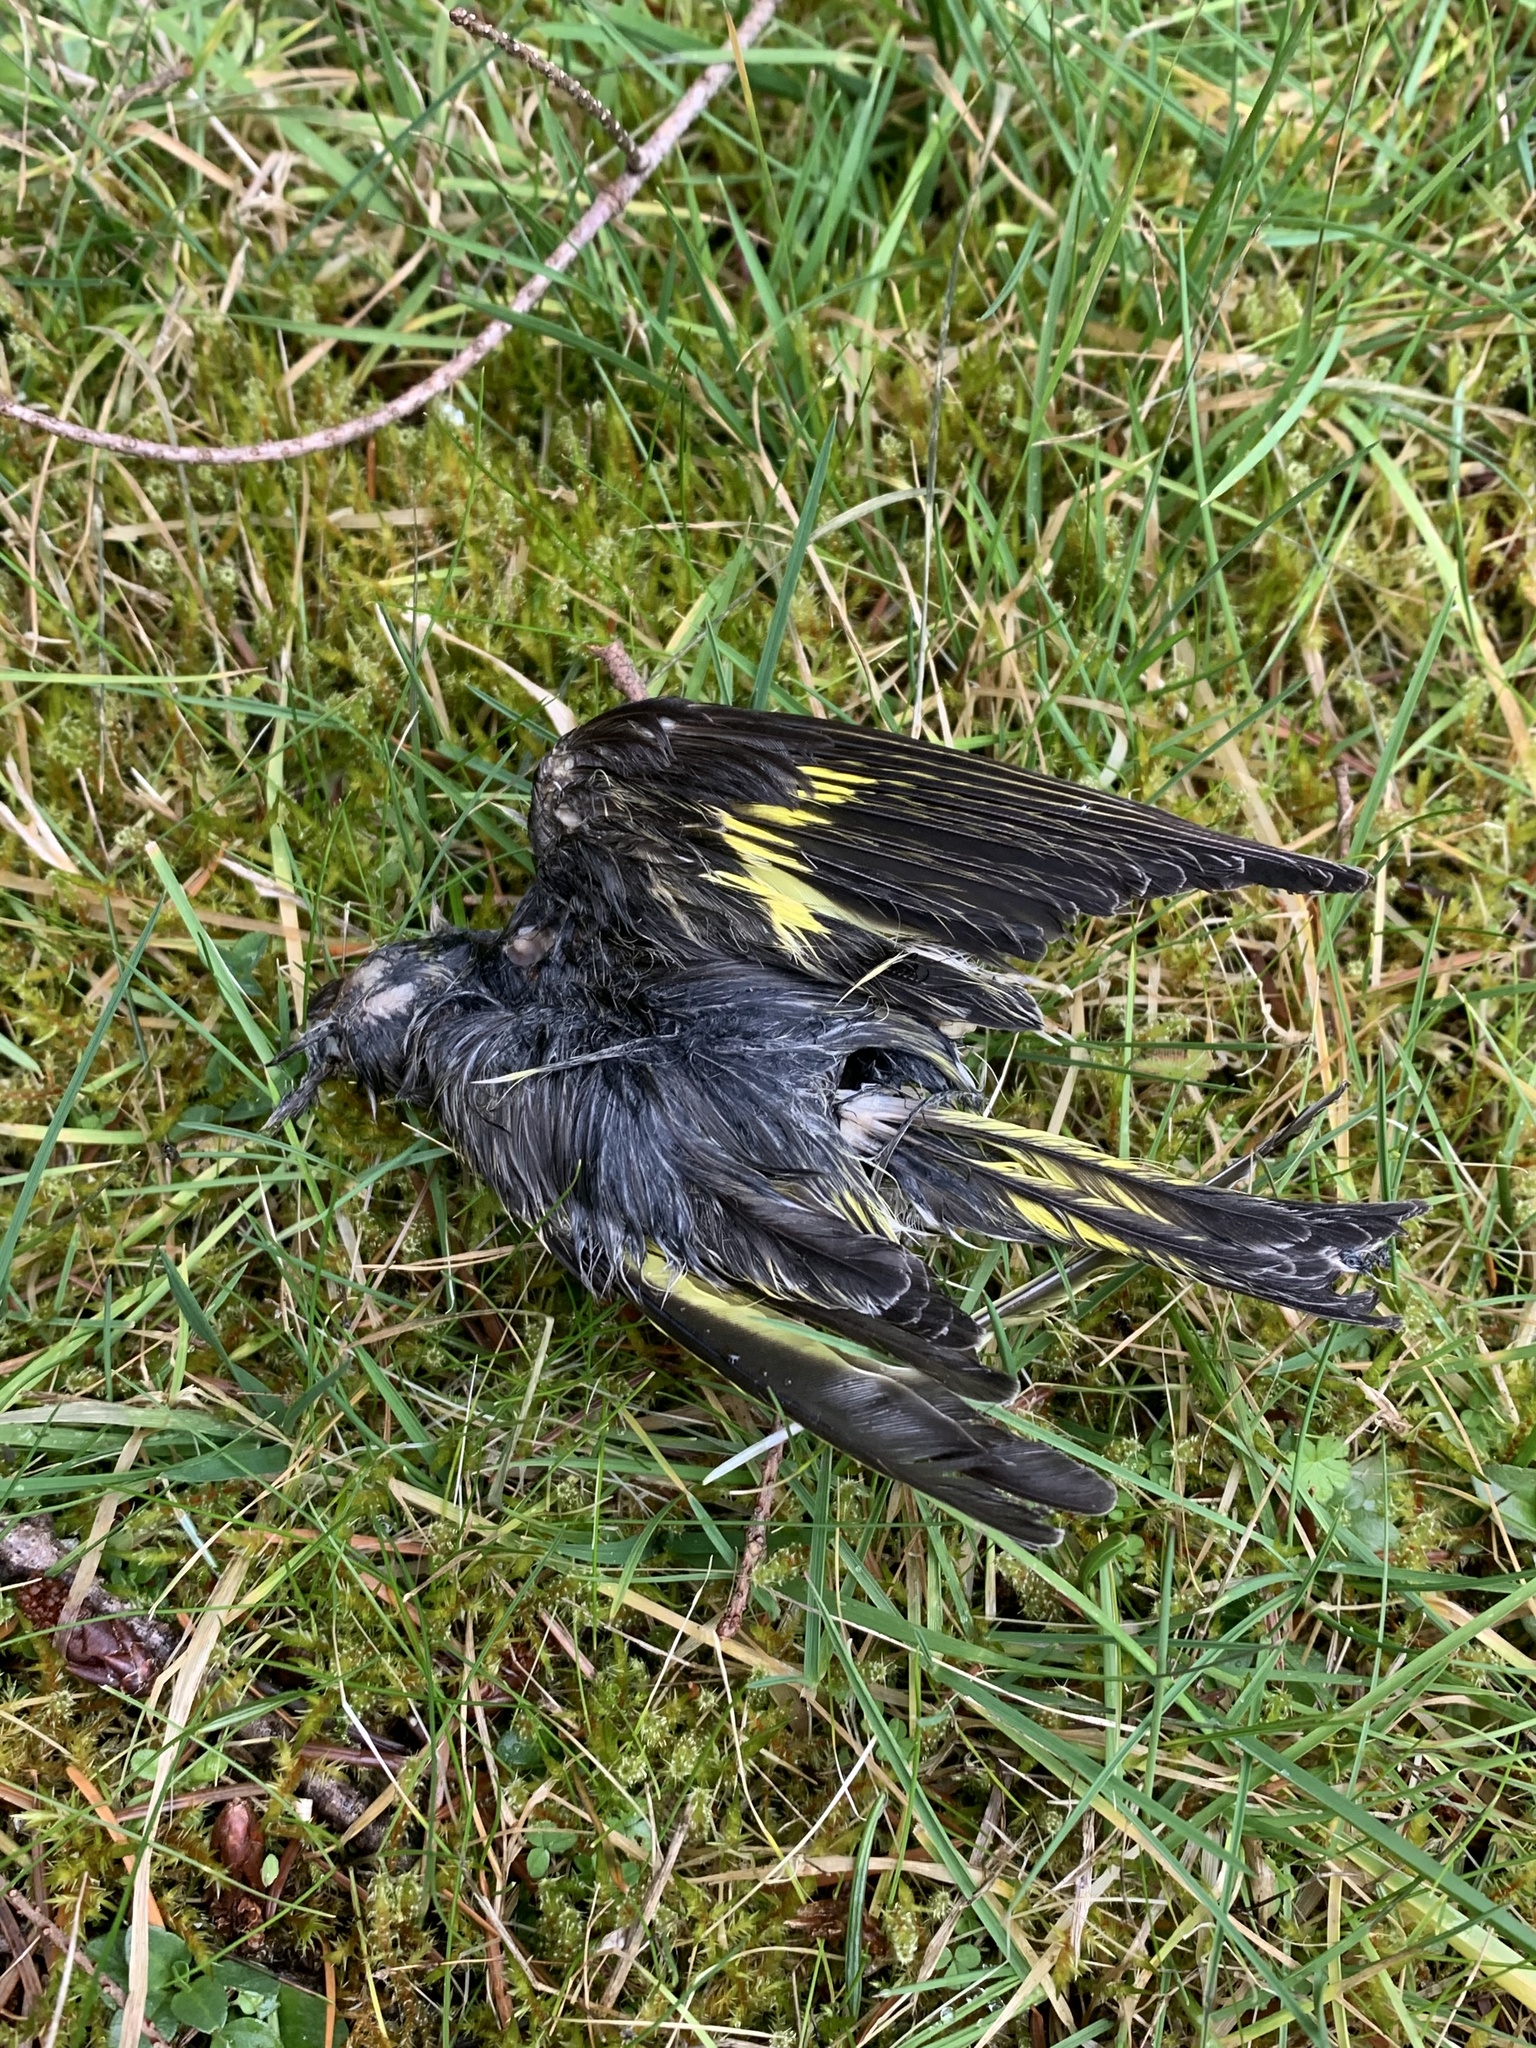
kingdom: Animalia
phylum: Chordata
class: Aves
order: Passeriformes
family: Fringillidae
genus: Spinus
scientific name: Spinus pinus
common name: Pine siskin
